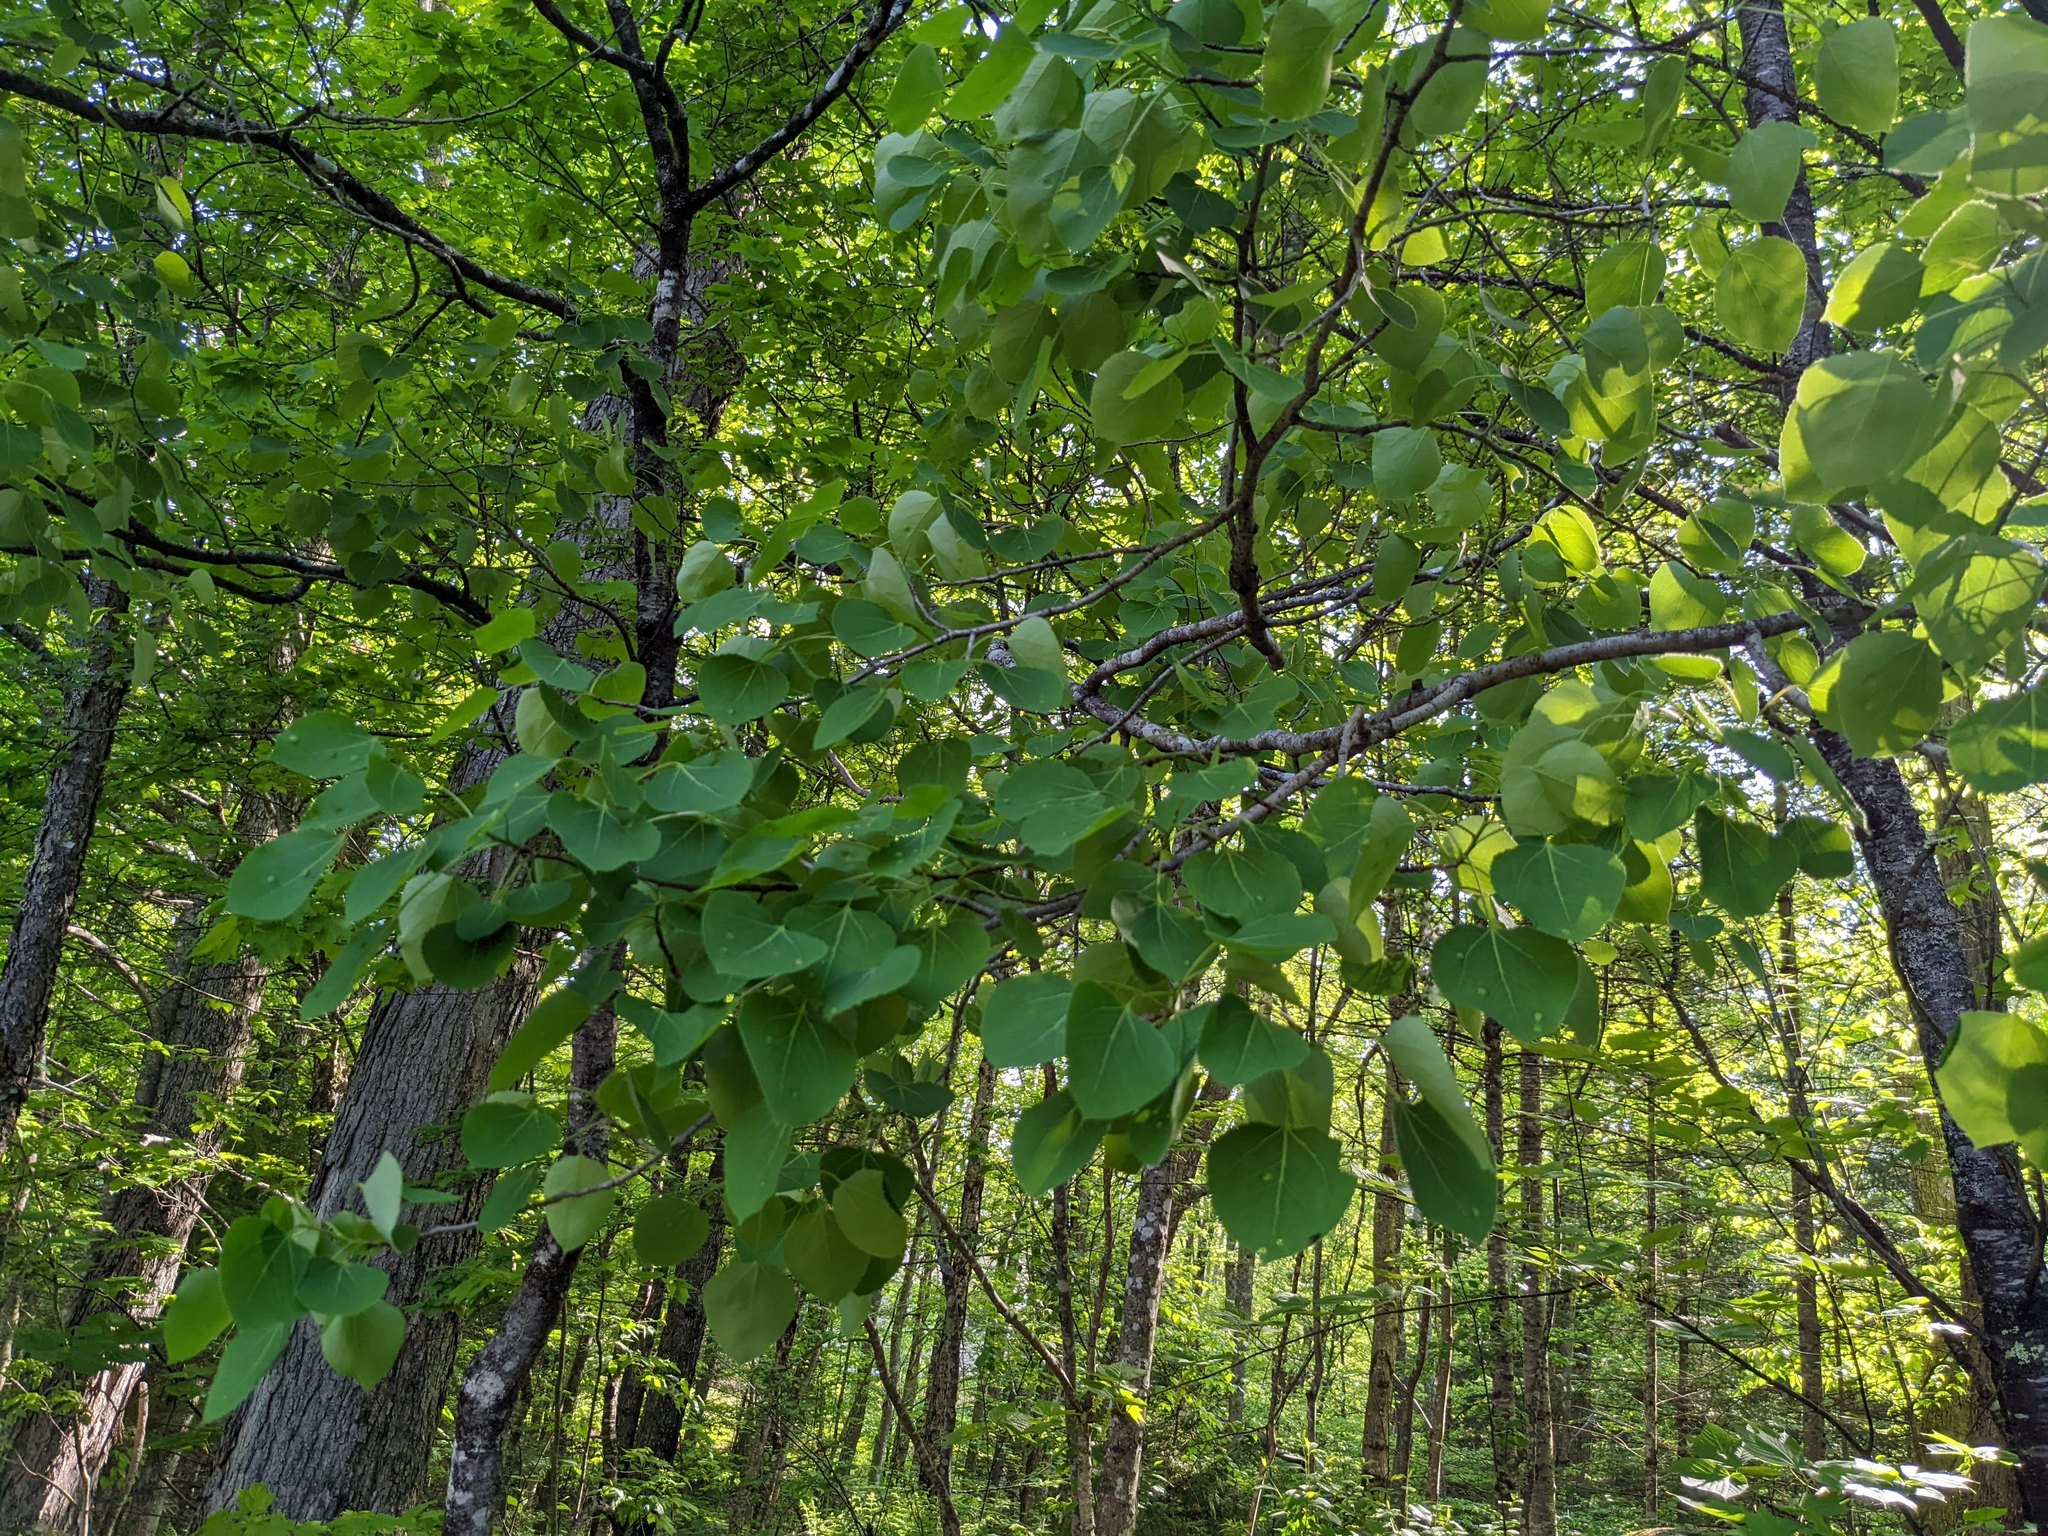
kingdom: Plantae
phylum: Tracheophyta
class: Magnoliopsida
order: Malpighiales
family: Salicaceae
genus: Populus
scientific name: Populus tremuloides
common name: Quaking aspen
